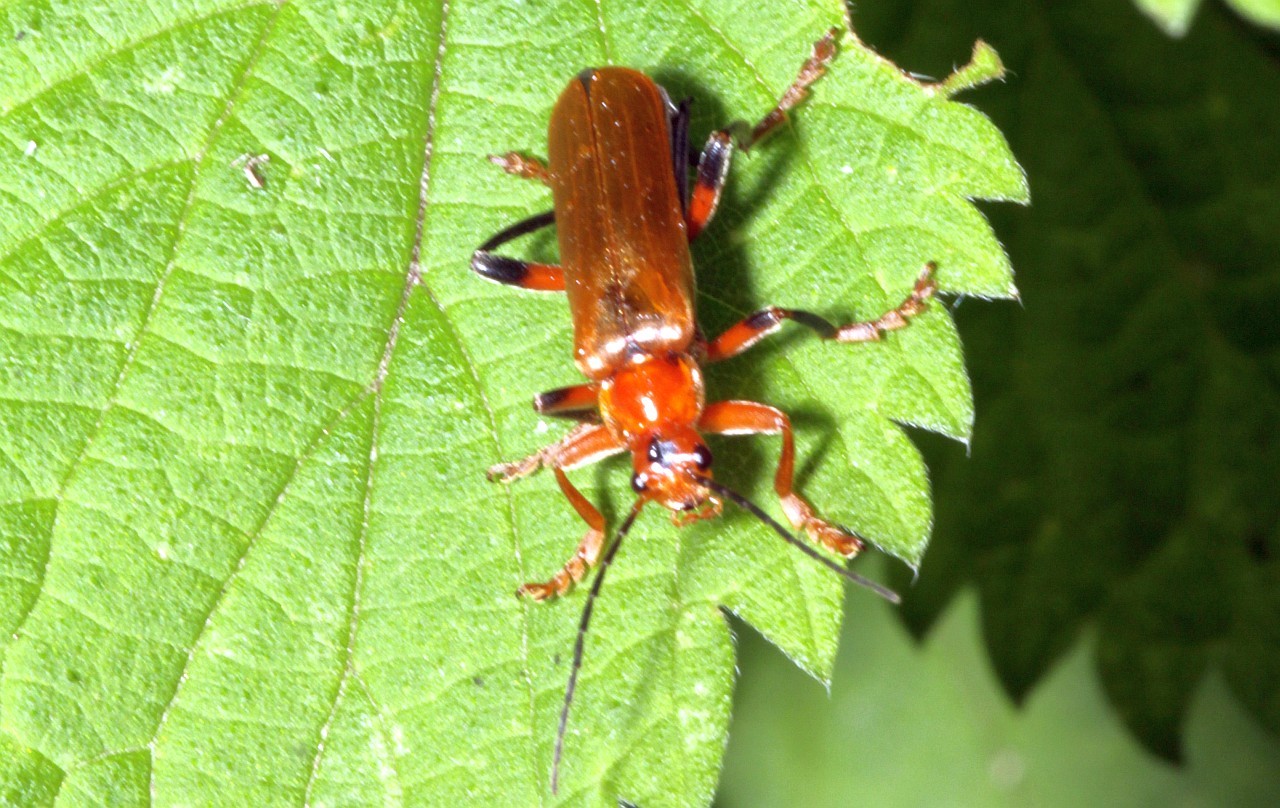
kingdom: Animalia
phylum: Arthropoda
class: Insecta
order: Coleoptera
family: Cantharidae
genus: Cantharis
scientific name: Cantharis livida
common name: Livid soldier beetle
